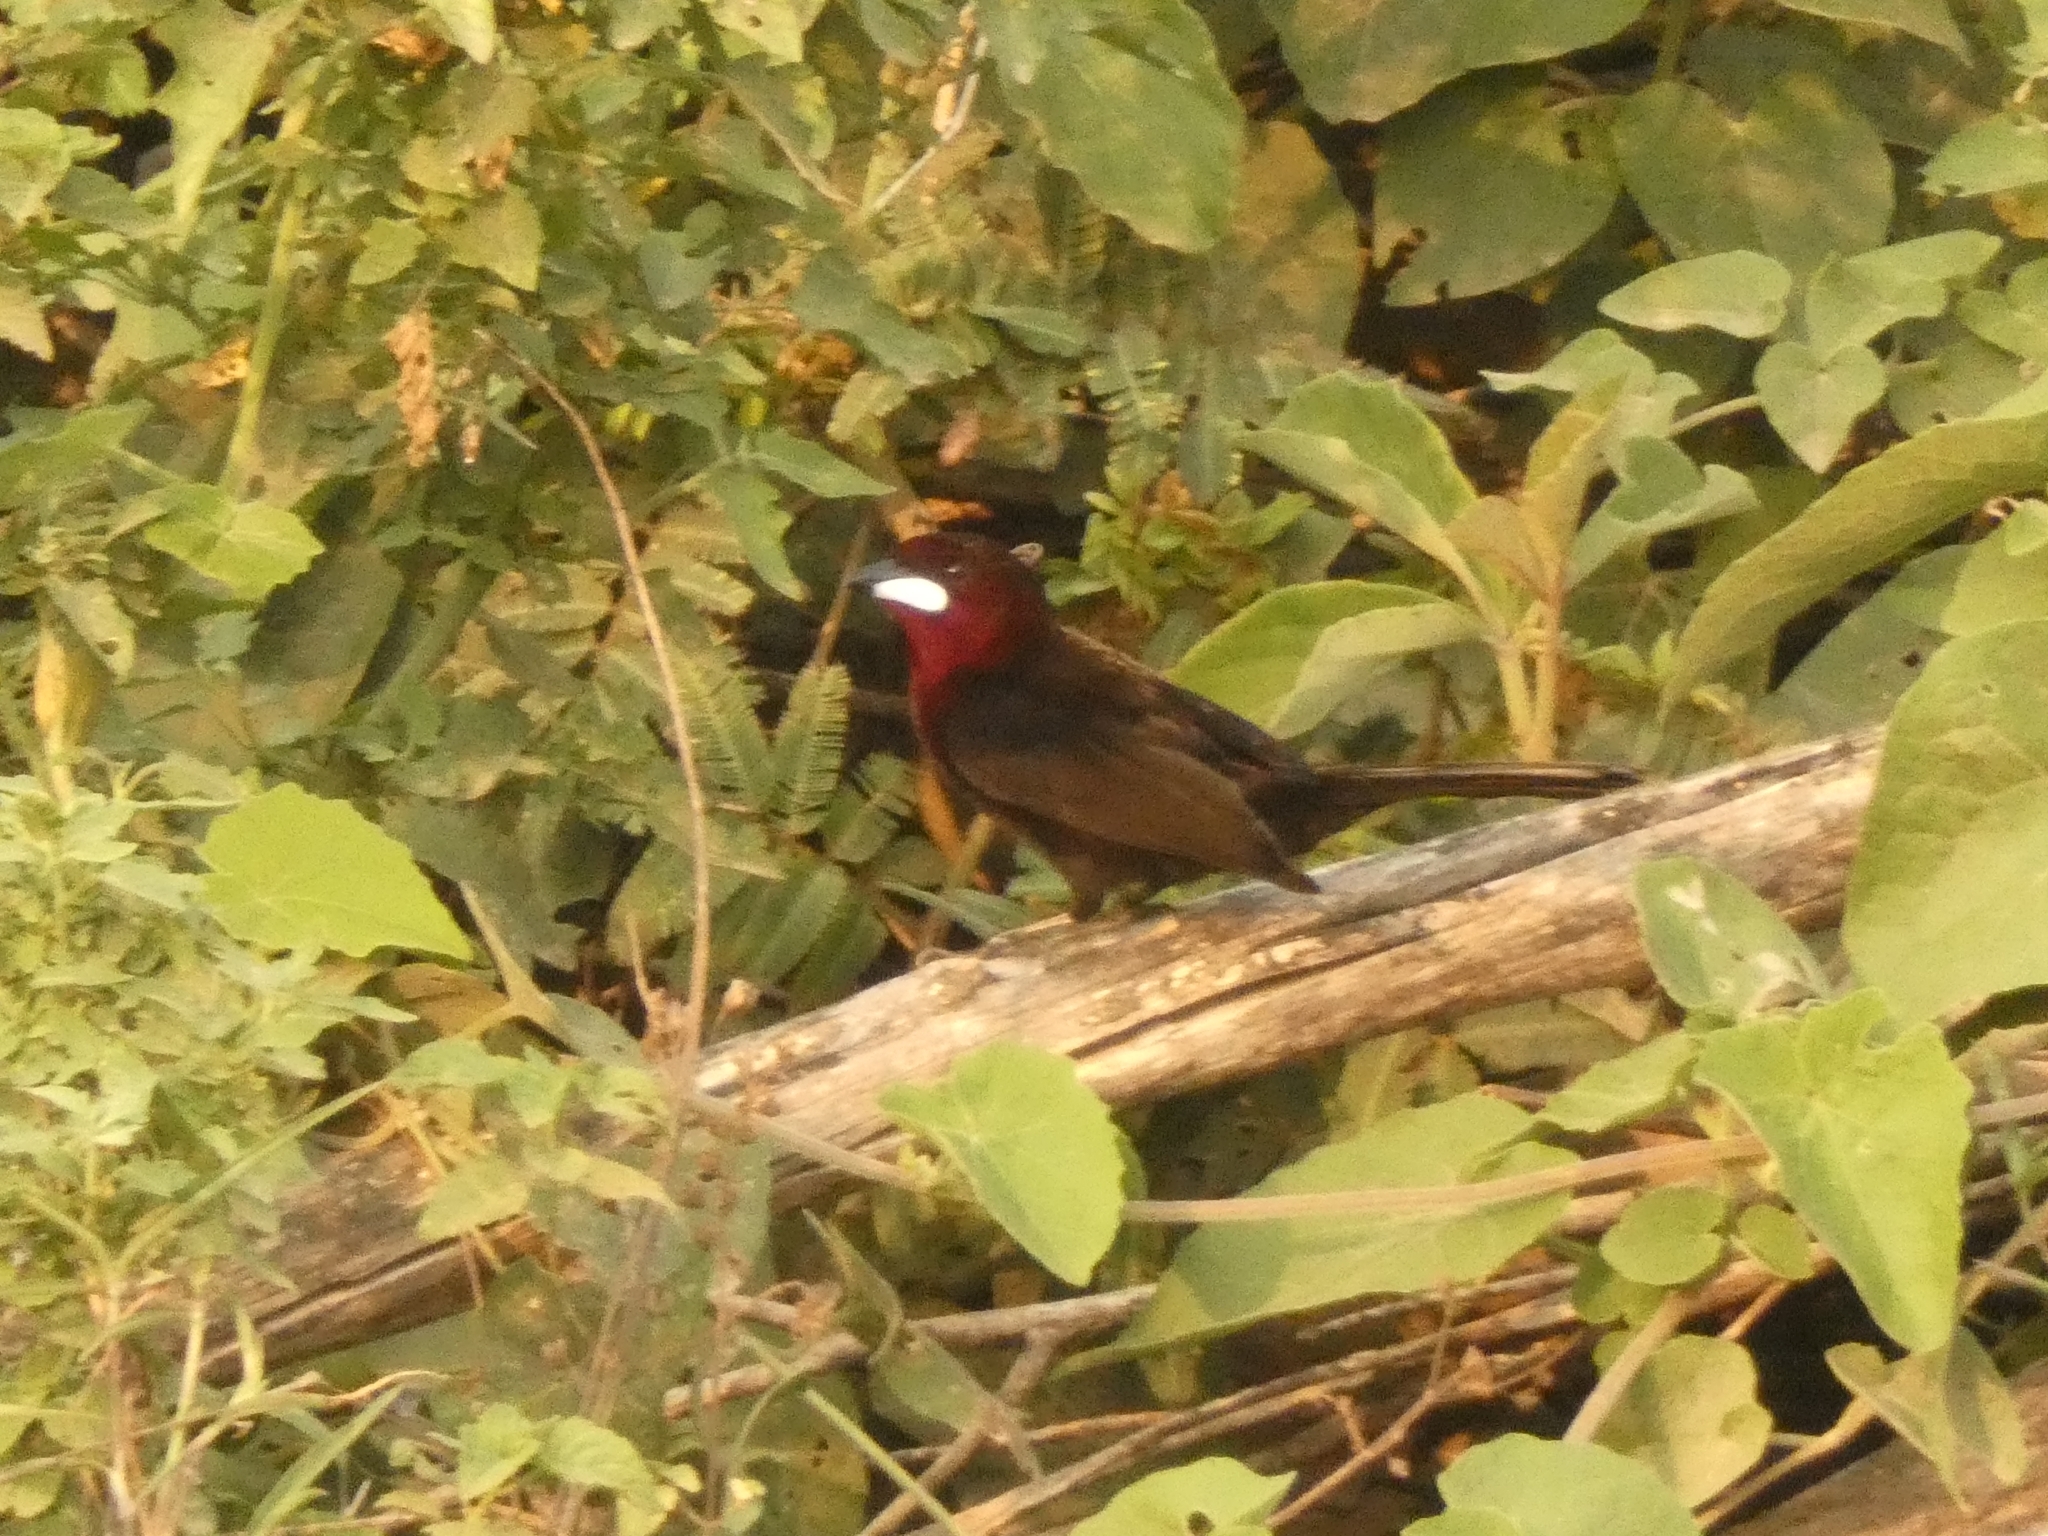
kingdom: Animalia
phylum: Chordata
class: Aves
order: Passeriformes
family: Thraupidae
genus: Ramphocelus
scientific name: Ramphocelus carbo
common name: Silver-beaked tanager
